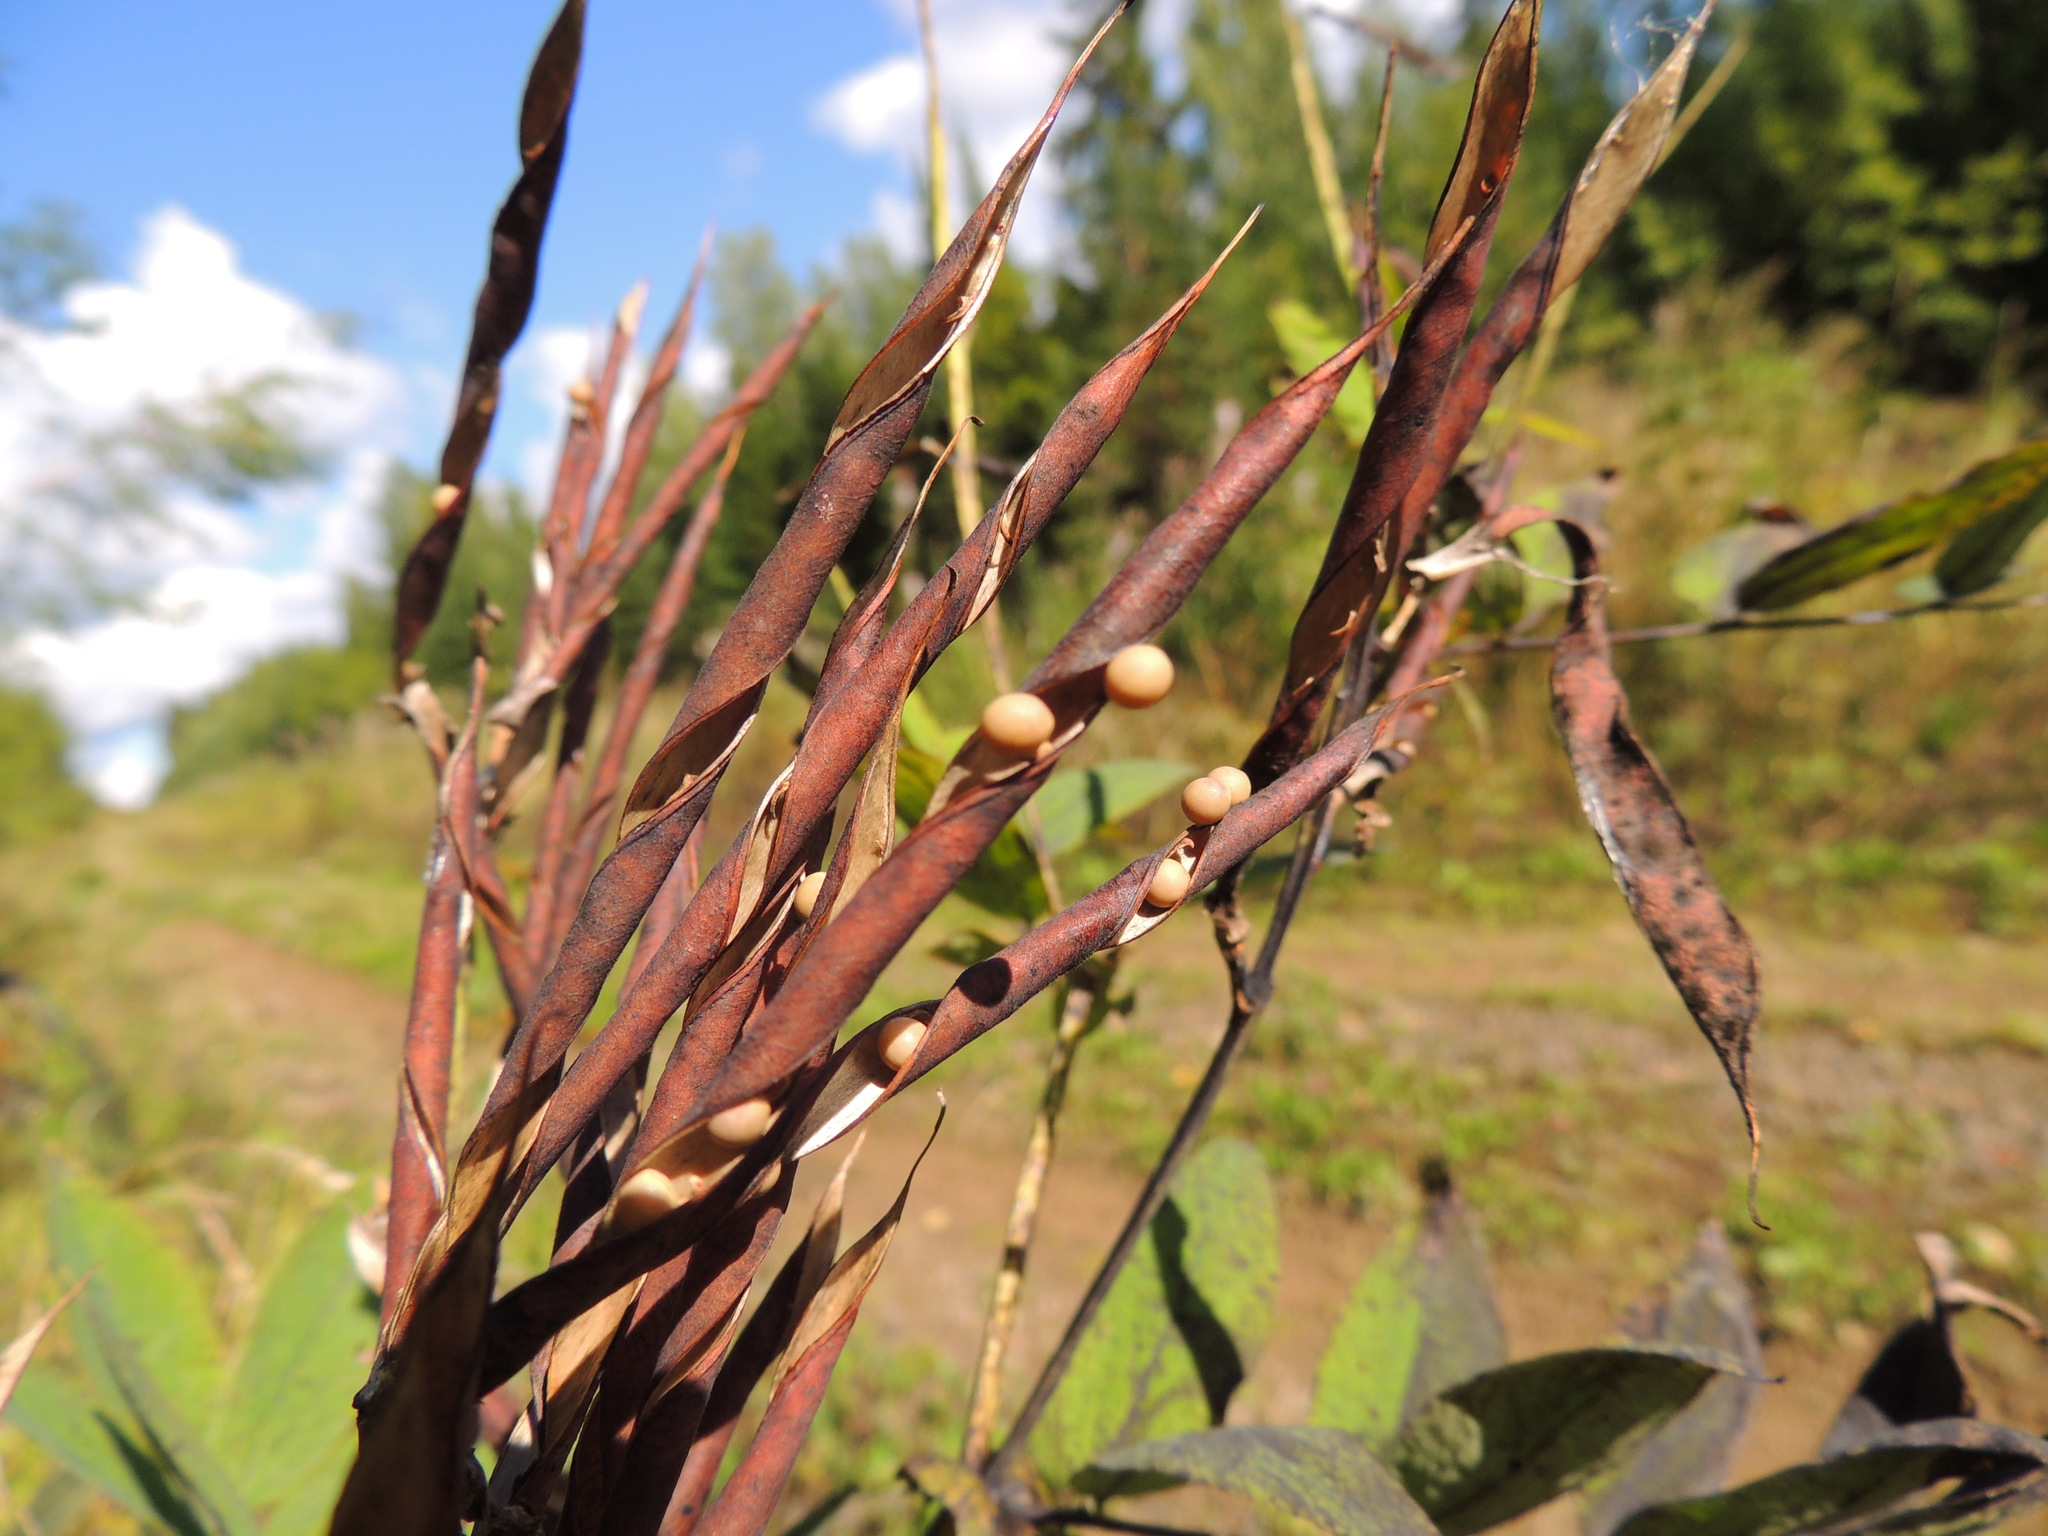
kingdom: Plantae
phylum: Tracheophyta
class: Magnoliopsida
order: Fabales
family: Fabaceae
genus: Lathyrus
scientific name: Lathyrus gmelinii
